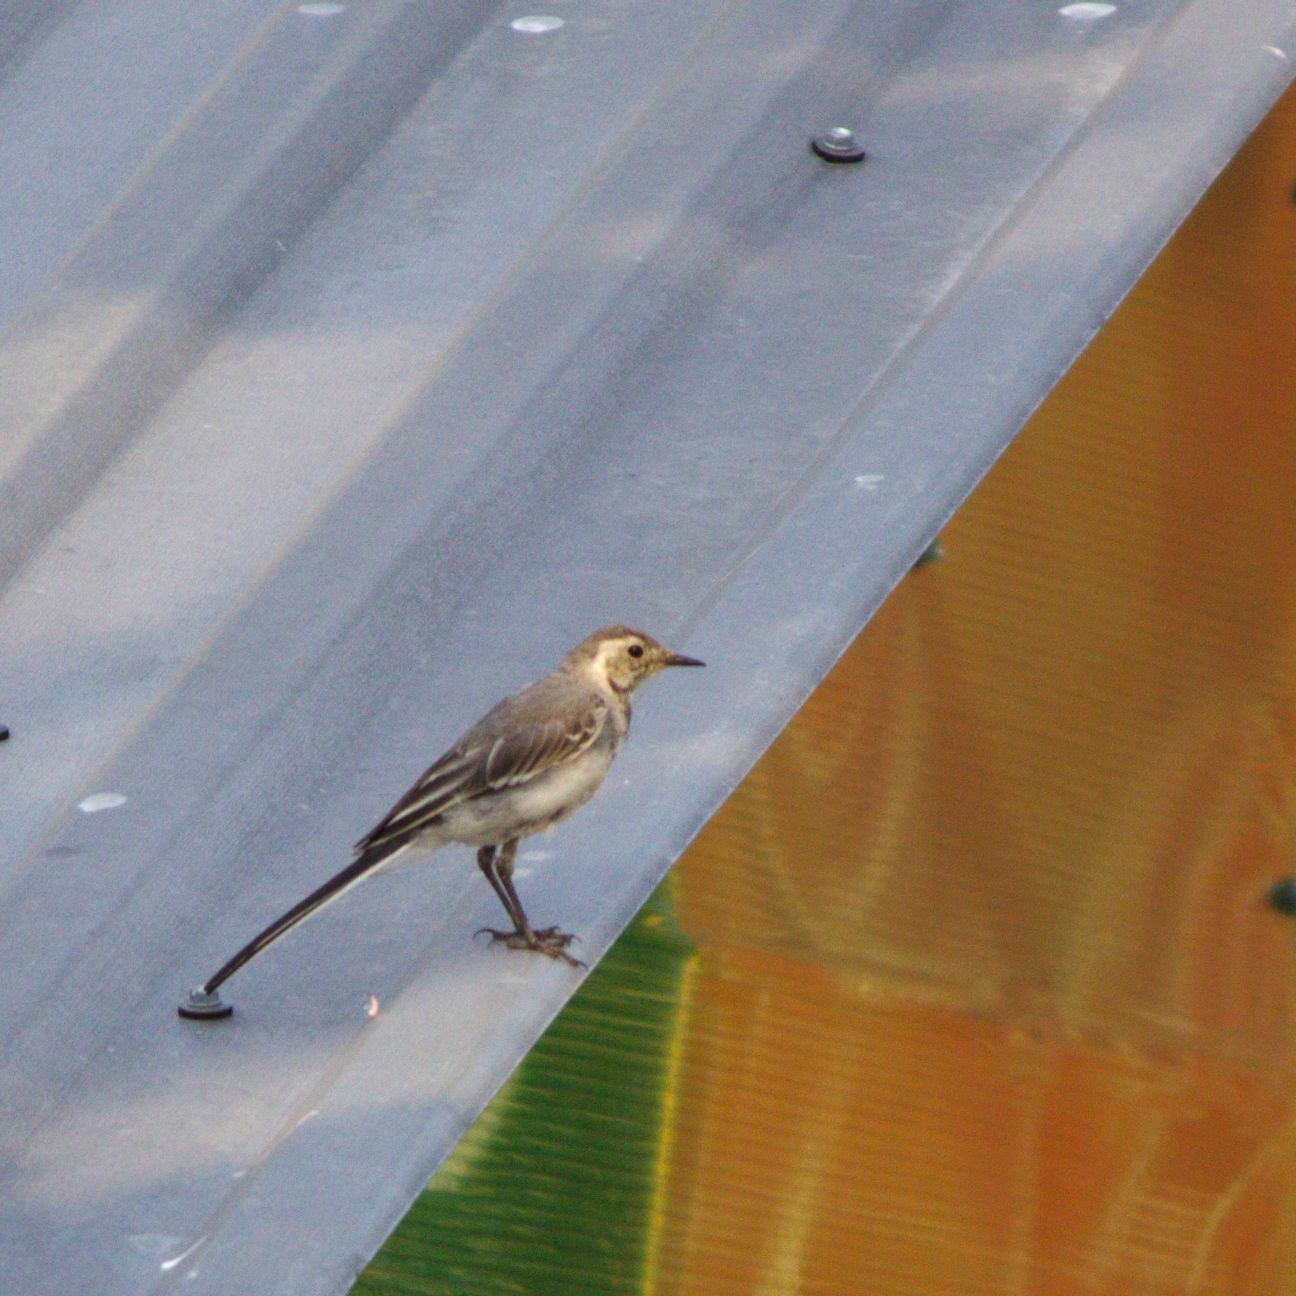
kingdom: Animalia
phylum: Chordata
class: Aves
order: Passeriformes
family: Motacillidae
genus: Motacilla
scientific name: Motacilla alba
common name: White wagtail
